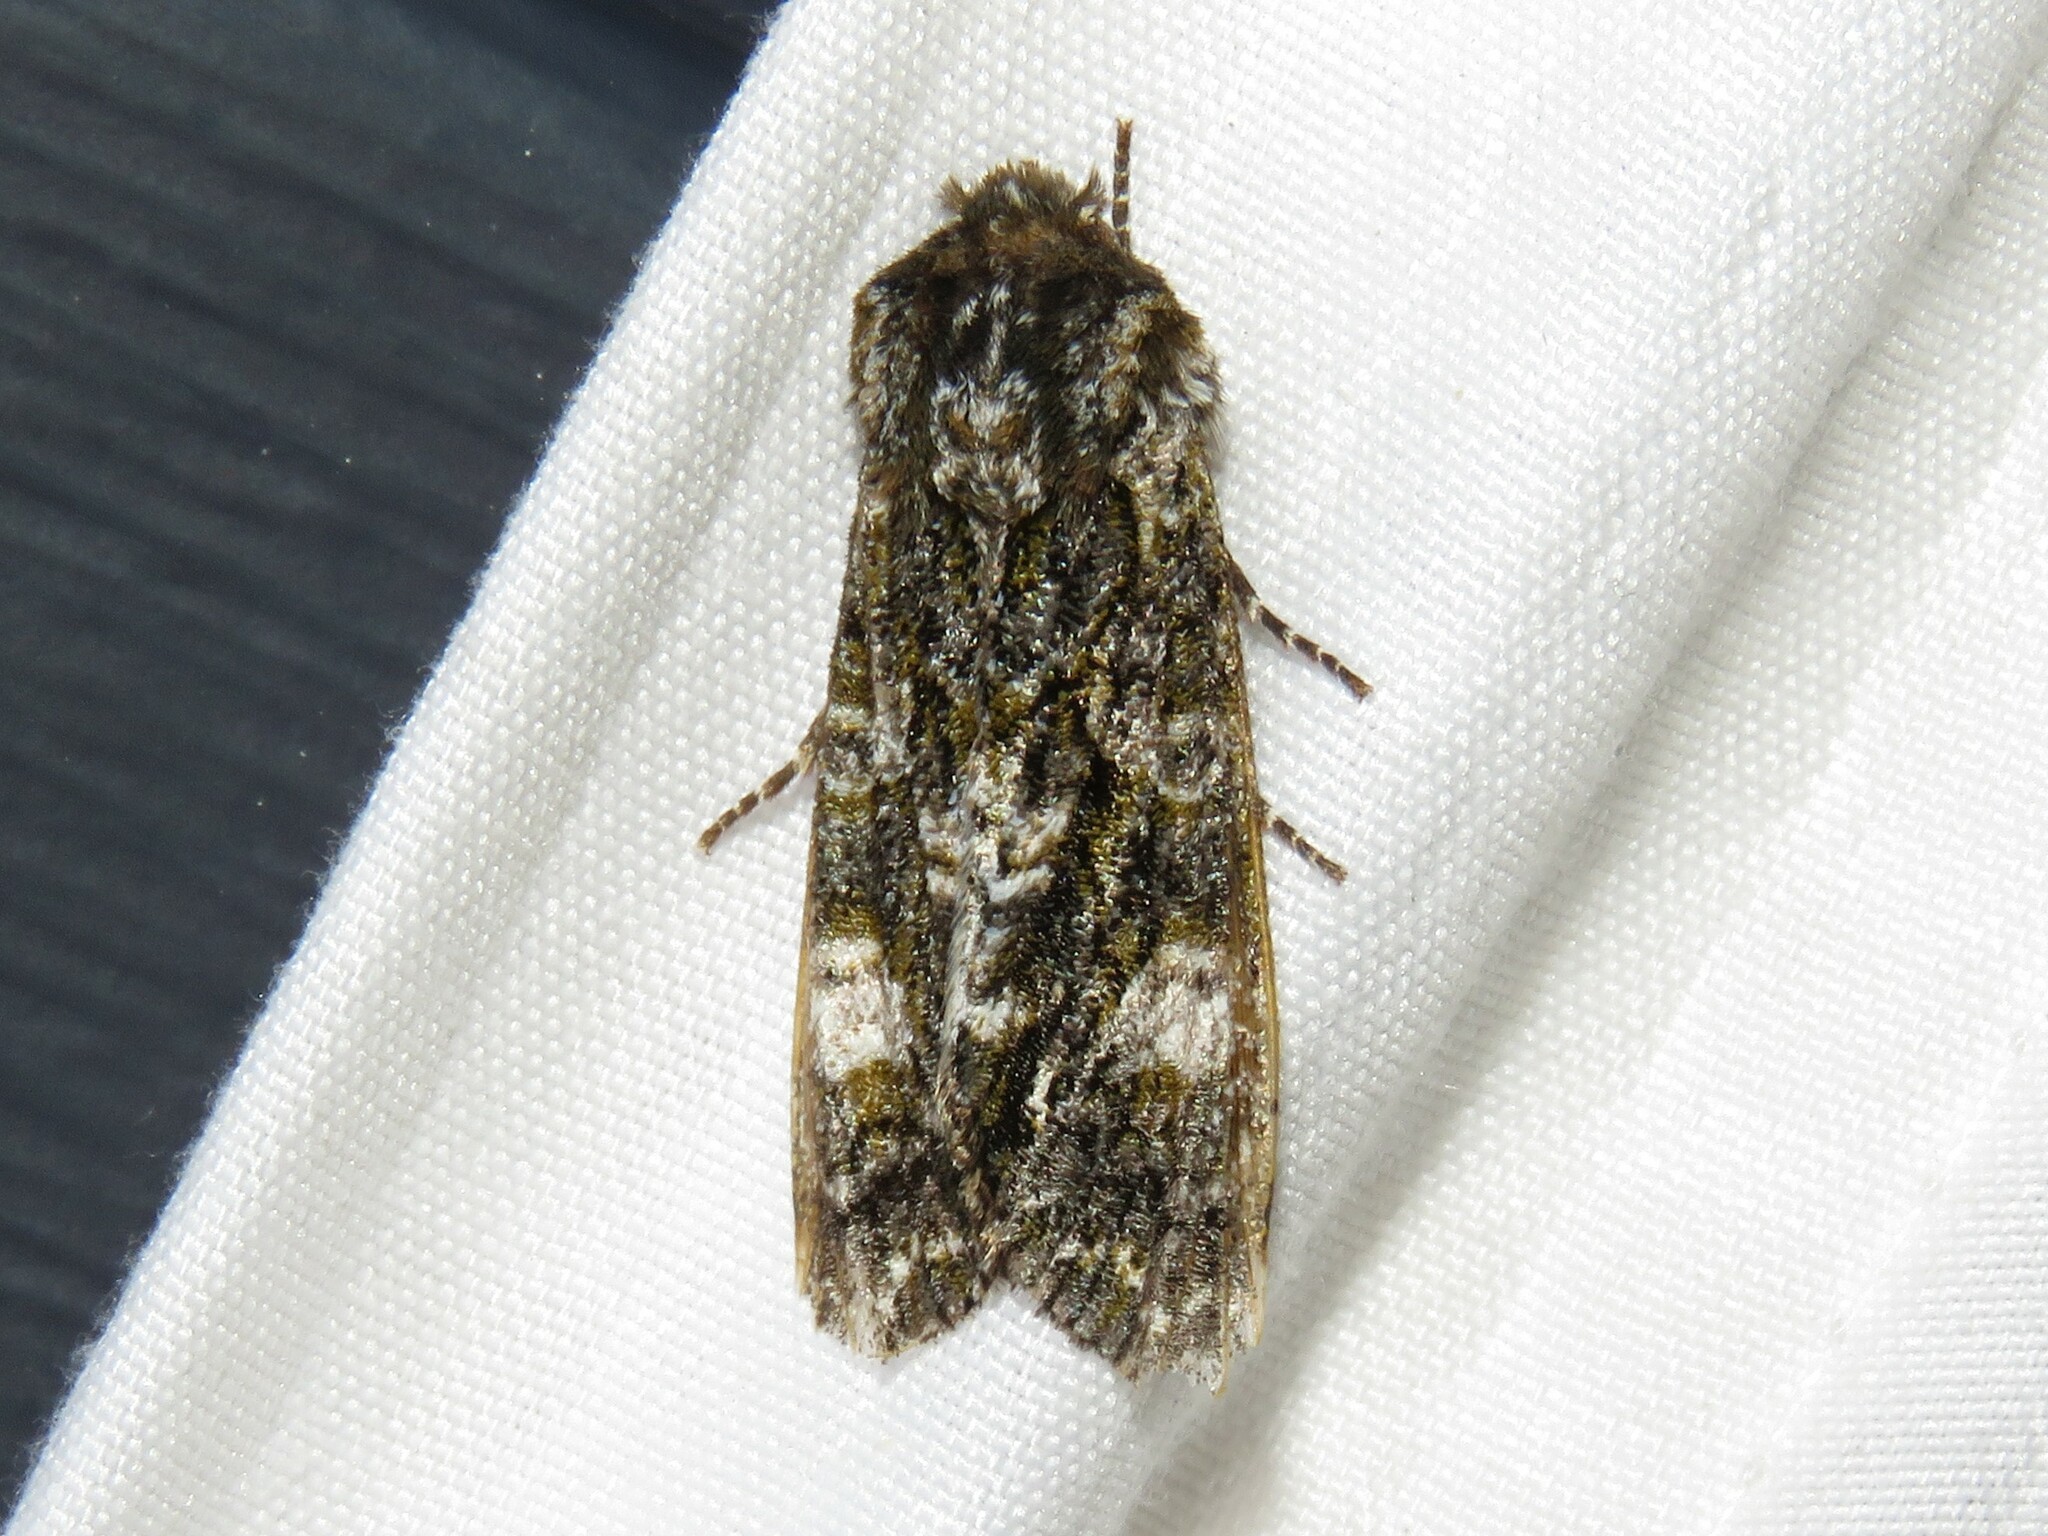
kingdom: Animalia
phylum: Arthropoda
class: Insecta
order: Lepidoptera
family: Noctuidae
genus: Psaphida
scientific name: Psaphida grotei
